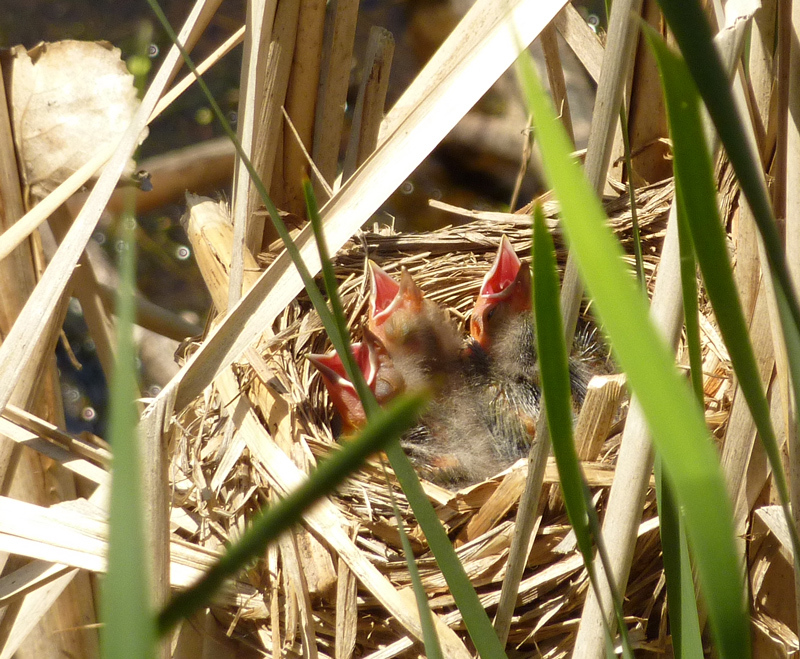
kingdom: Animalia
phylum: Chordata
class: Aves
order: Passeriformes
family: Icteridae
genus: Agelaius
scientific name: Agelaius phoeniceus
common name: Red-winged blackbird
